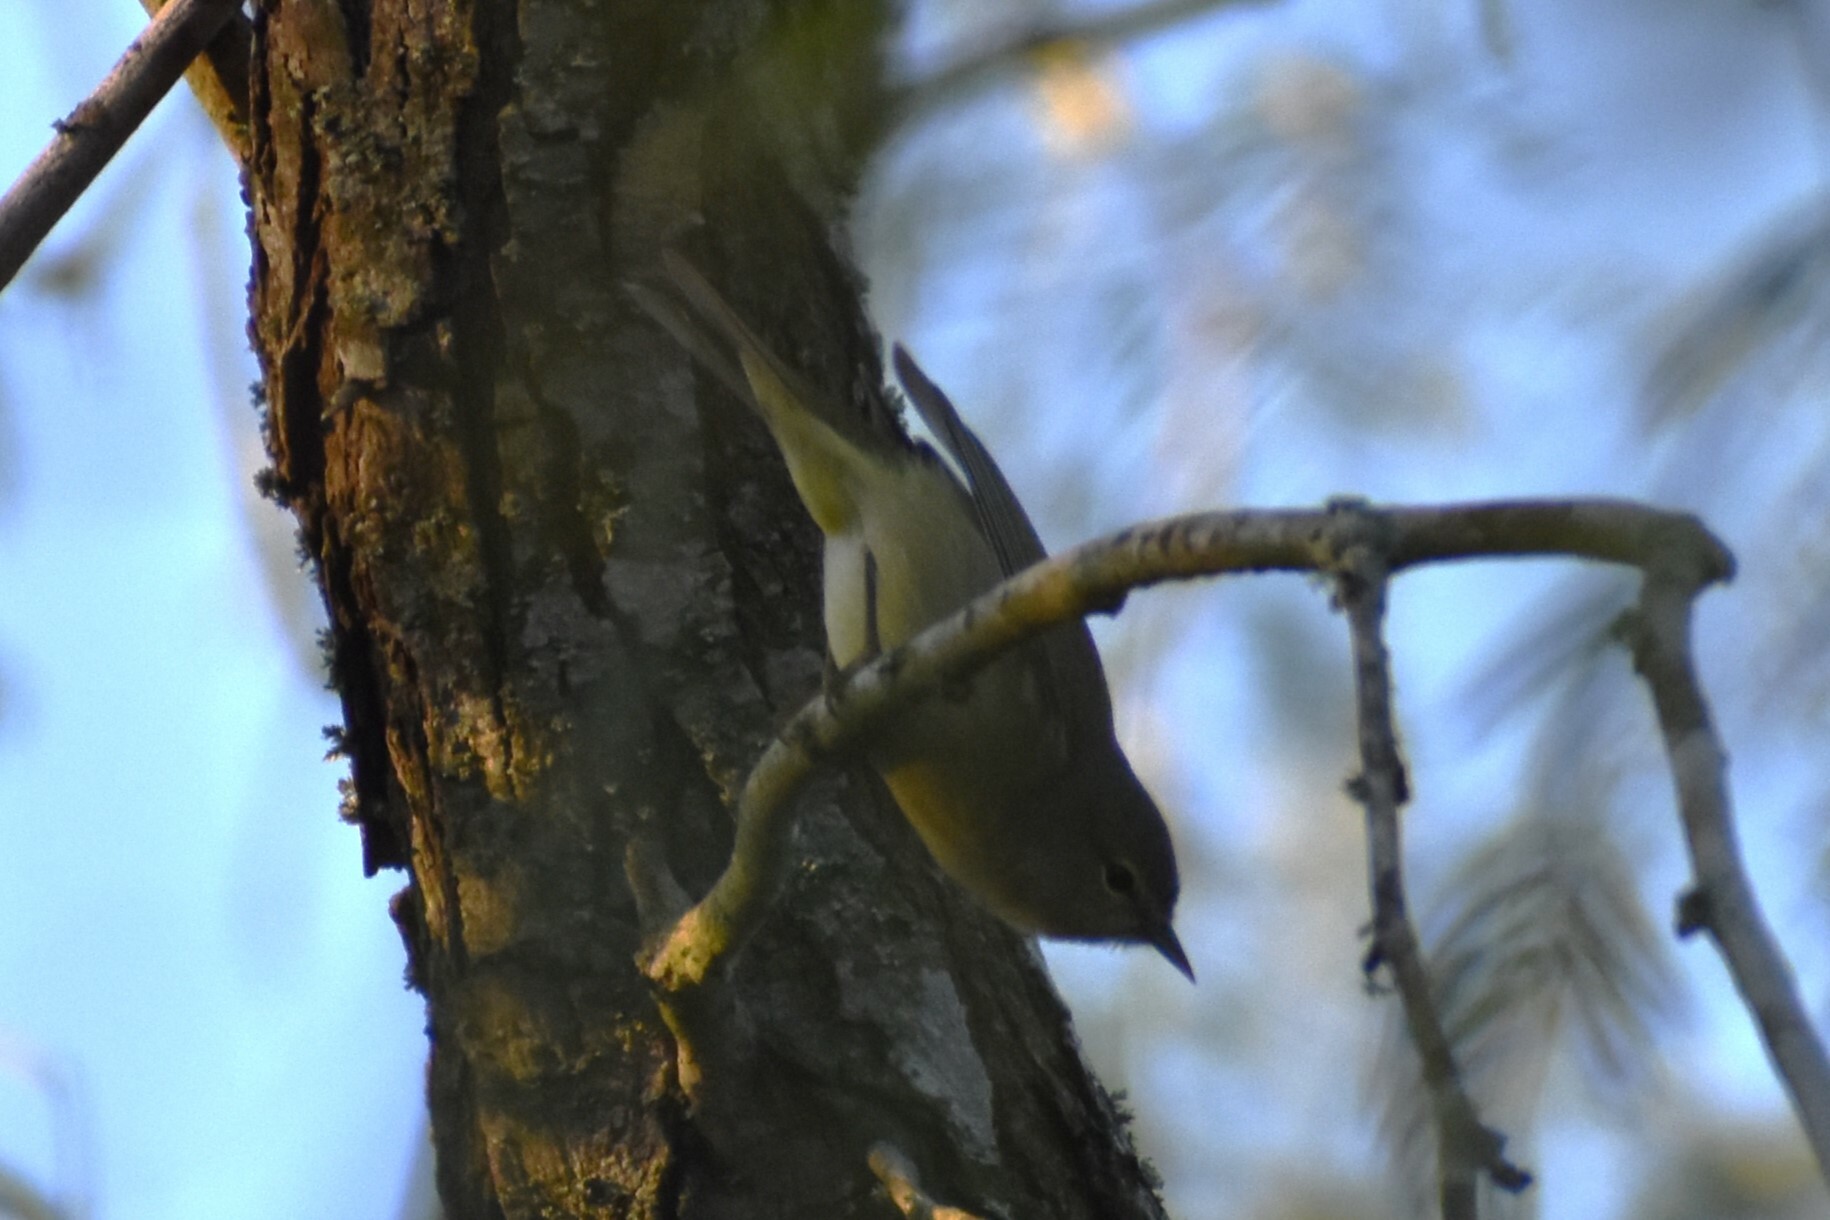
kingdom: Animalia
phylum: Chordata
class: Aves
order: Passeriformes
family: Parulidae
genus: Leiothlypis
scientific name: Leiothlypis celata
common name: Orange-crowned warbler
